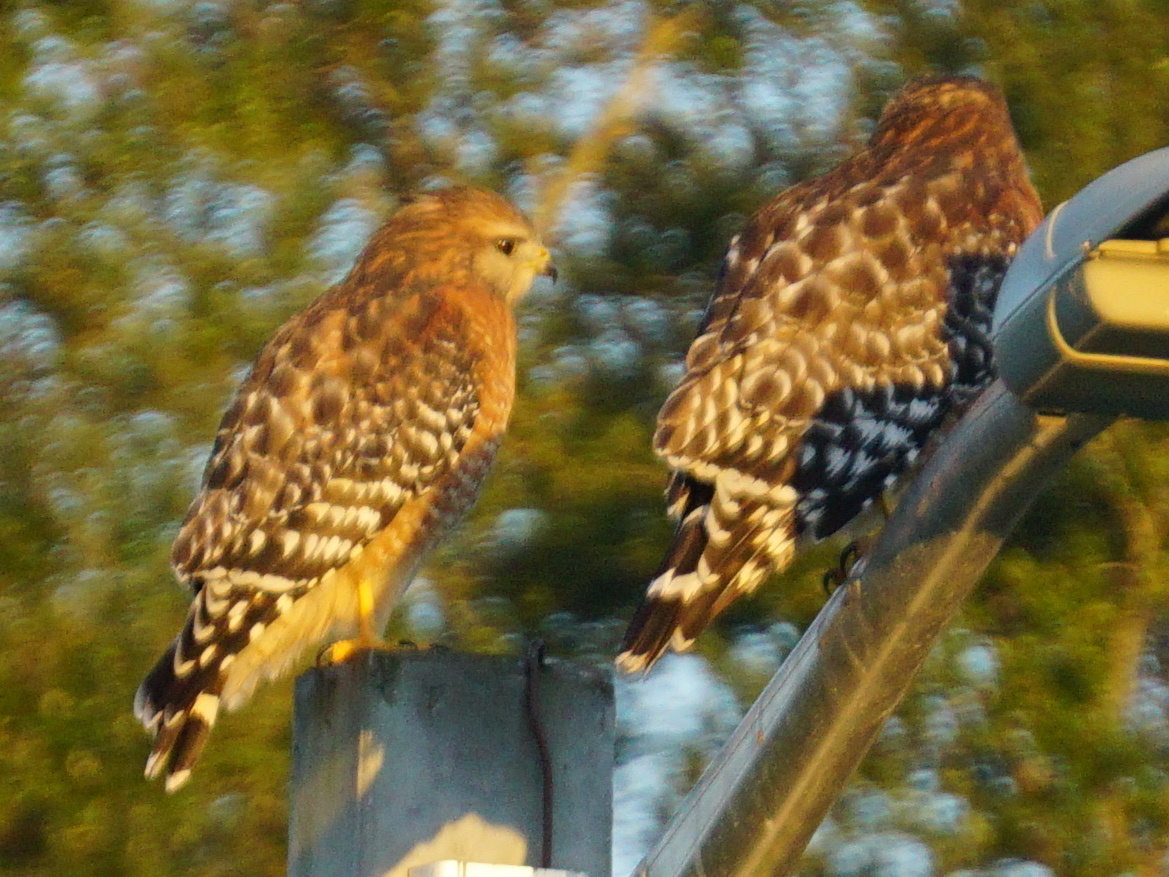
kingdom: Animalia
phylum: Chordata
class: Aves
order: Accipitriformes
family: Accipitridae
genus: Buteo
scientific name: Buteo lineatus
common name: Red-shouldered hawk
